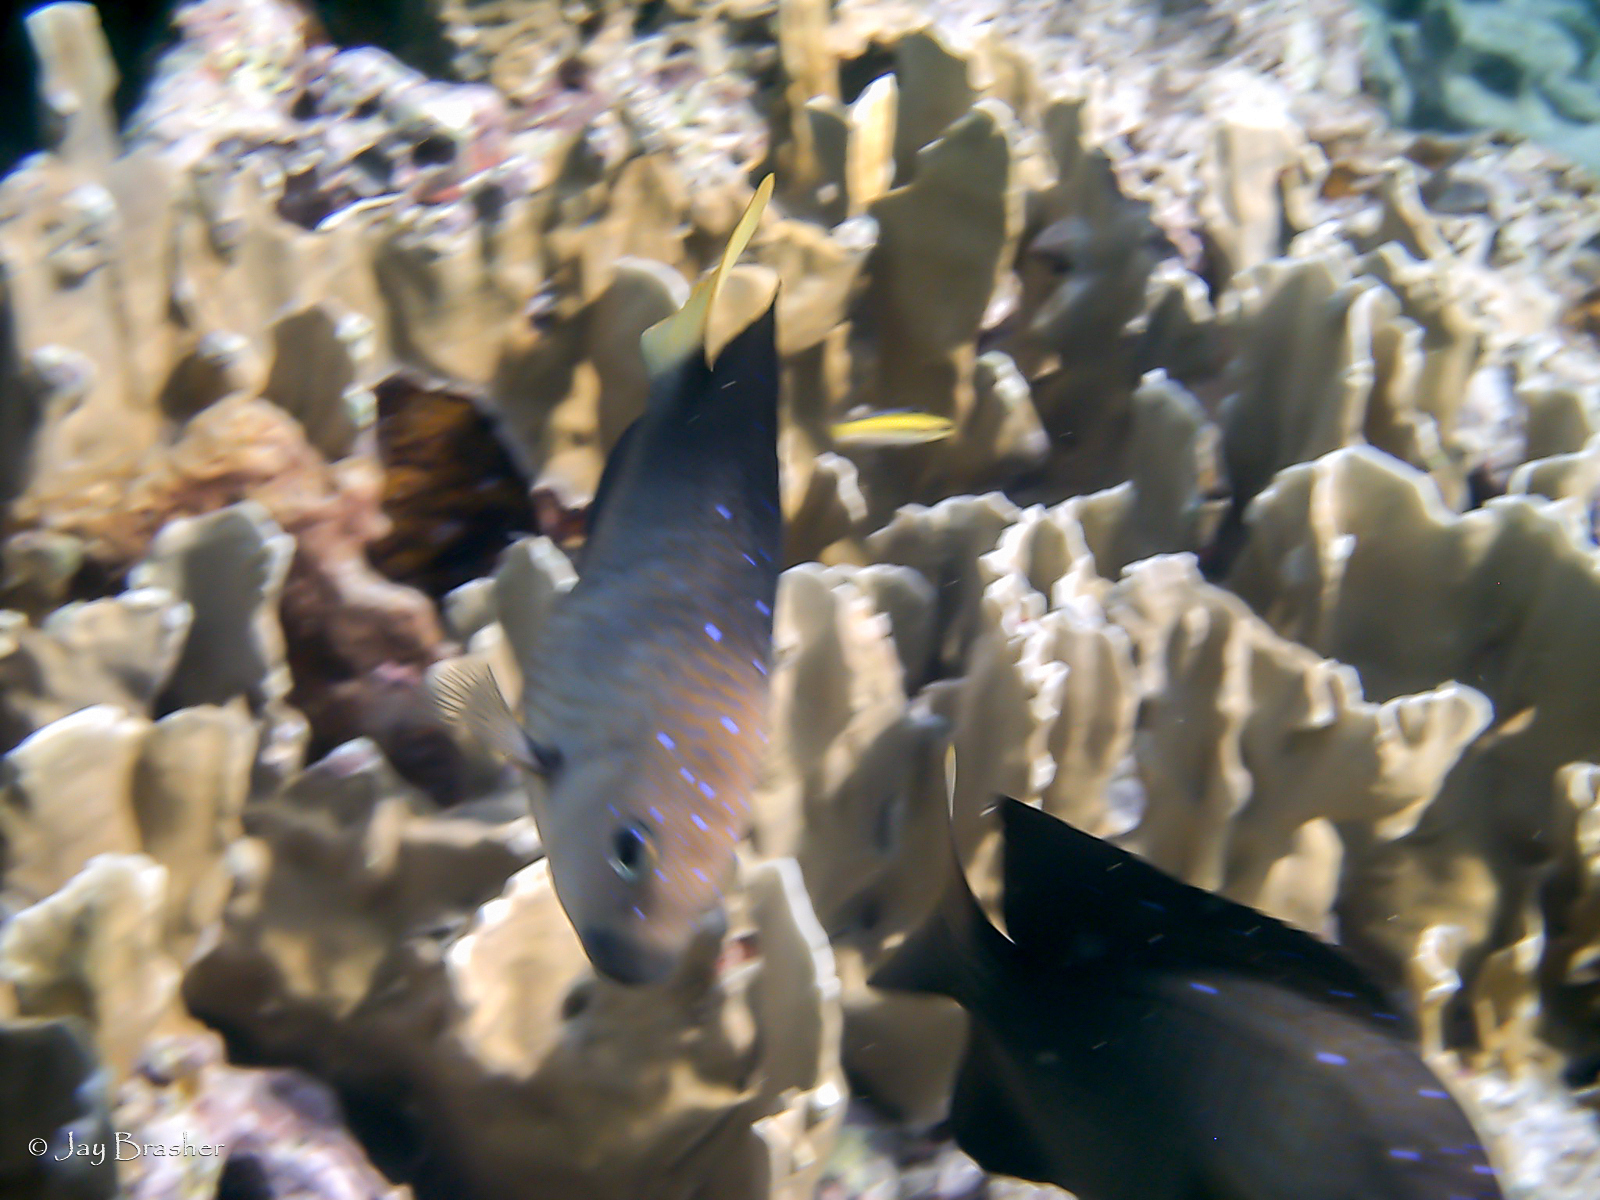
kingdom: Animalia
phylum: Chordata
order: Perciformes
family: Pomacentridae
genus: Microspathodon
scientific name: Microspathodon chrysurus
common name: Yellowtail damselfish
